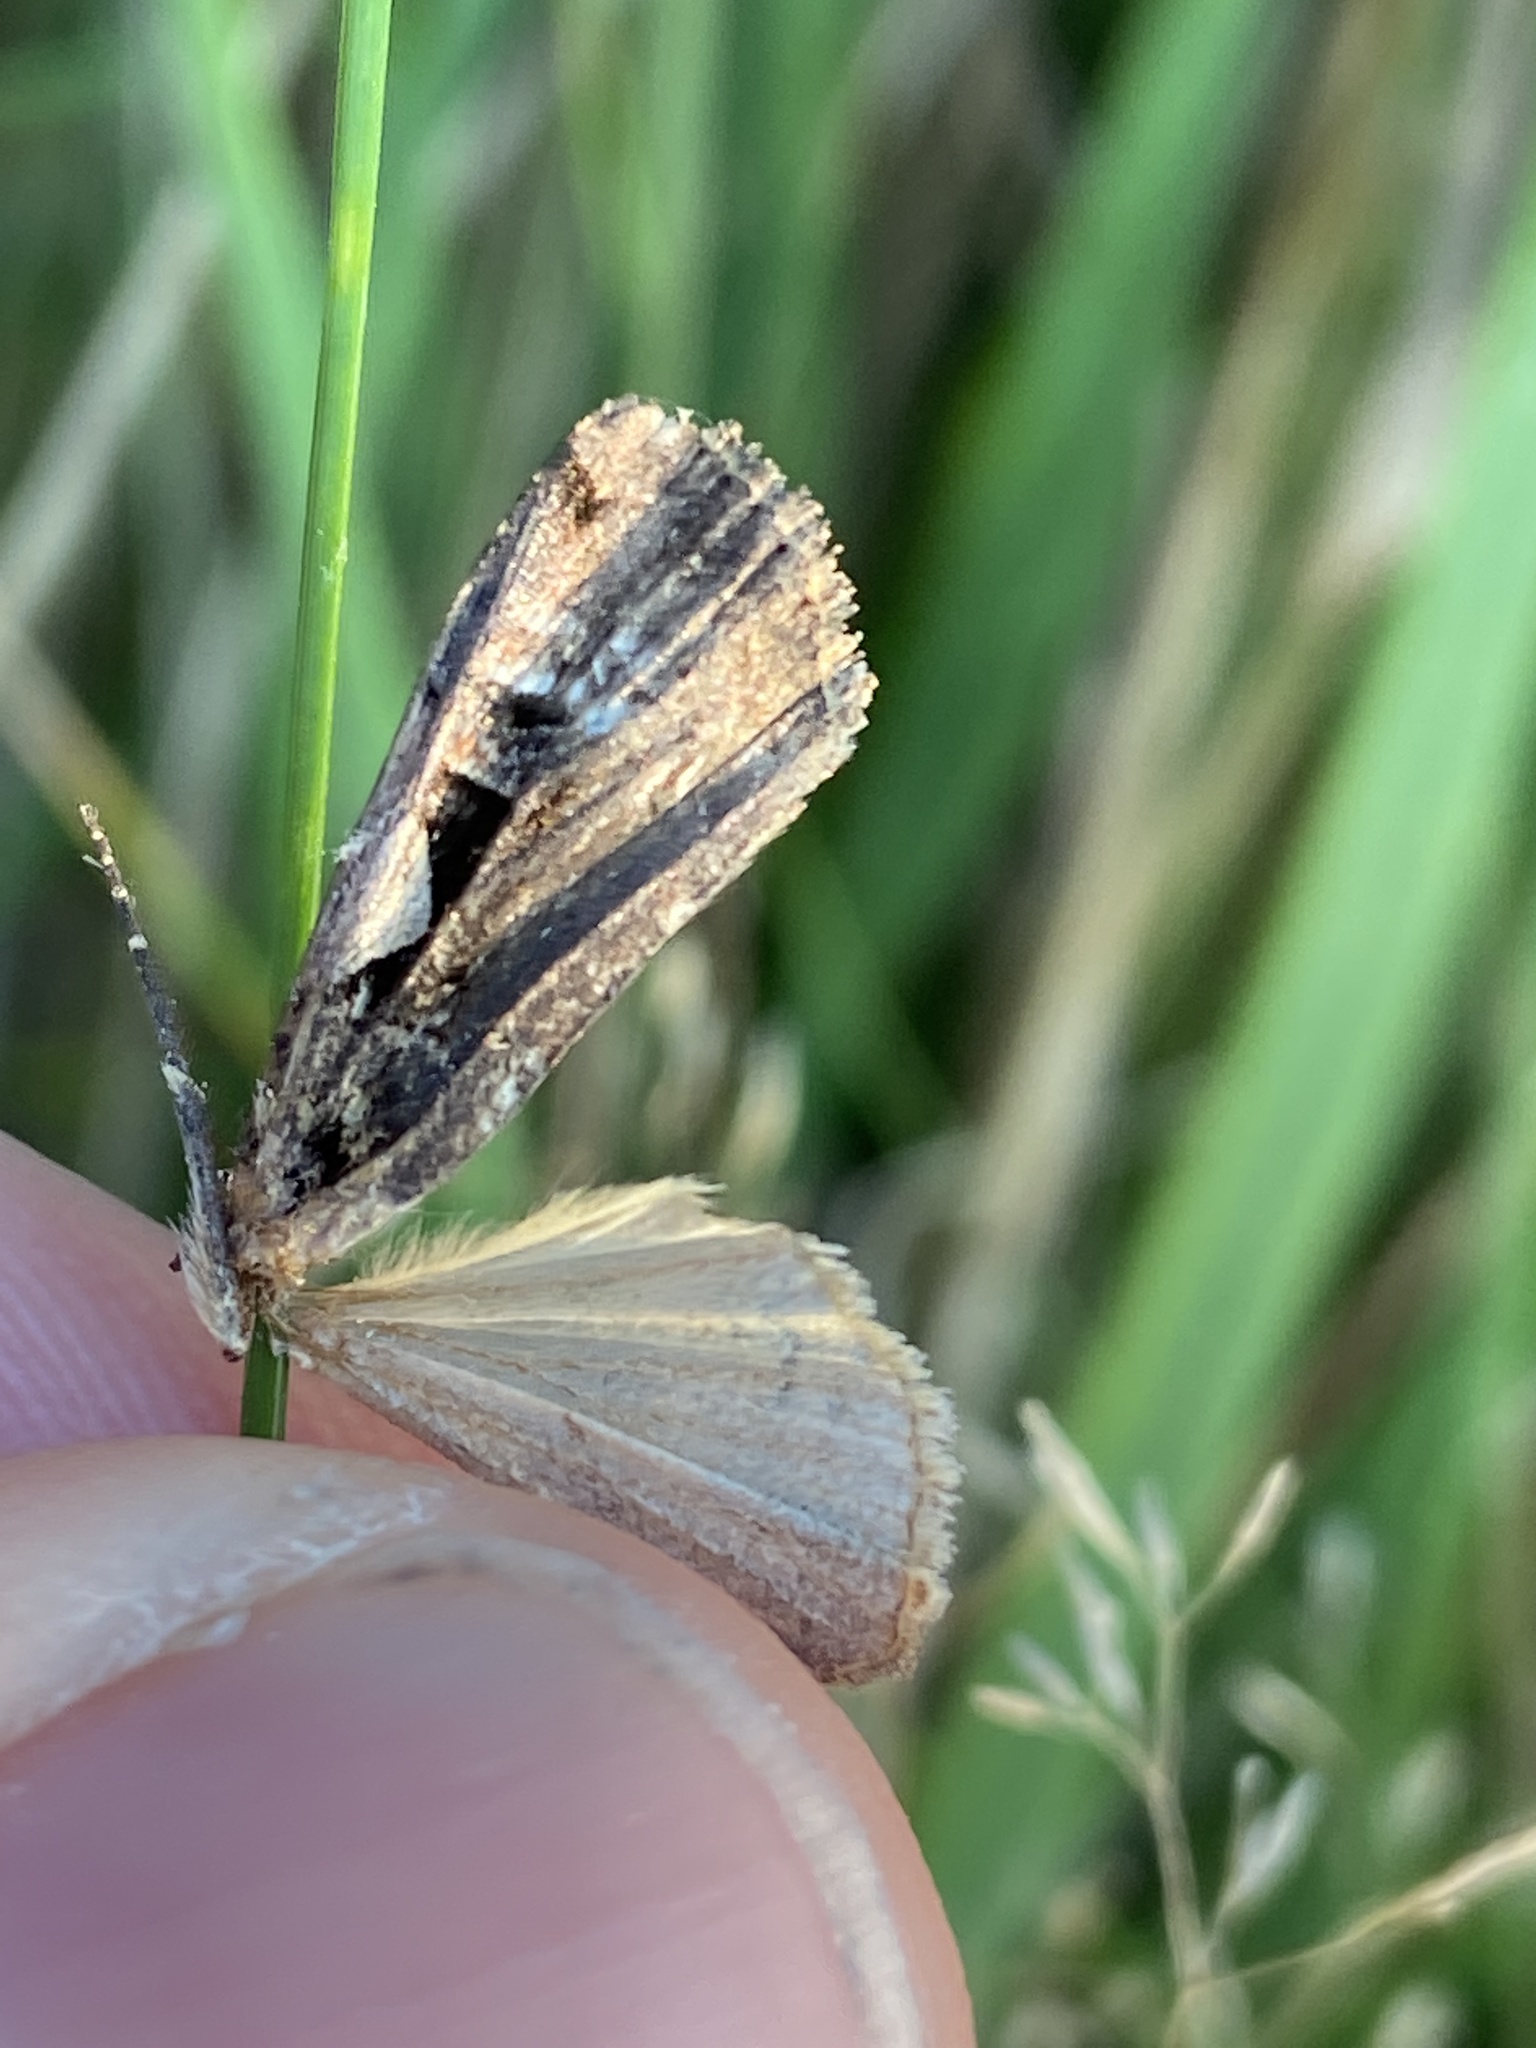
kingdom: Animalia
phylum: Arthropoda
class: Insecta
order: Lepidoptera
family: Noctuidae
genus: Xestia
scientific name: Xestia c-nigrum
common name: Setaceous hebrew character
